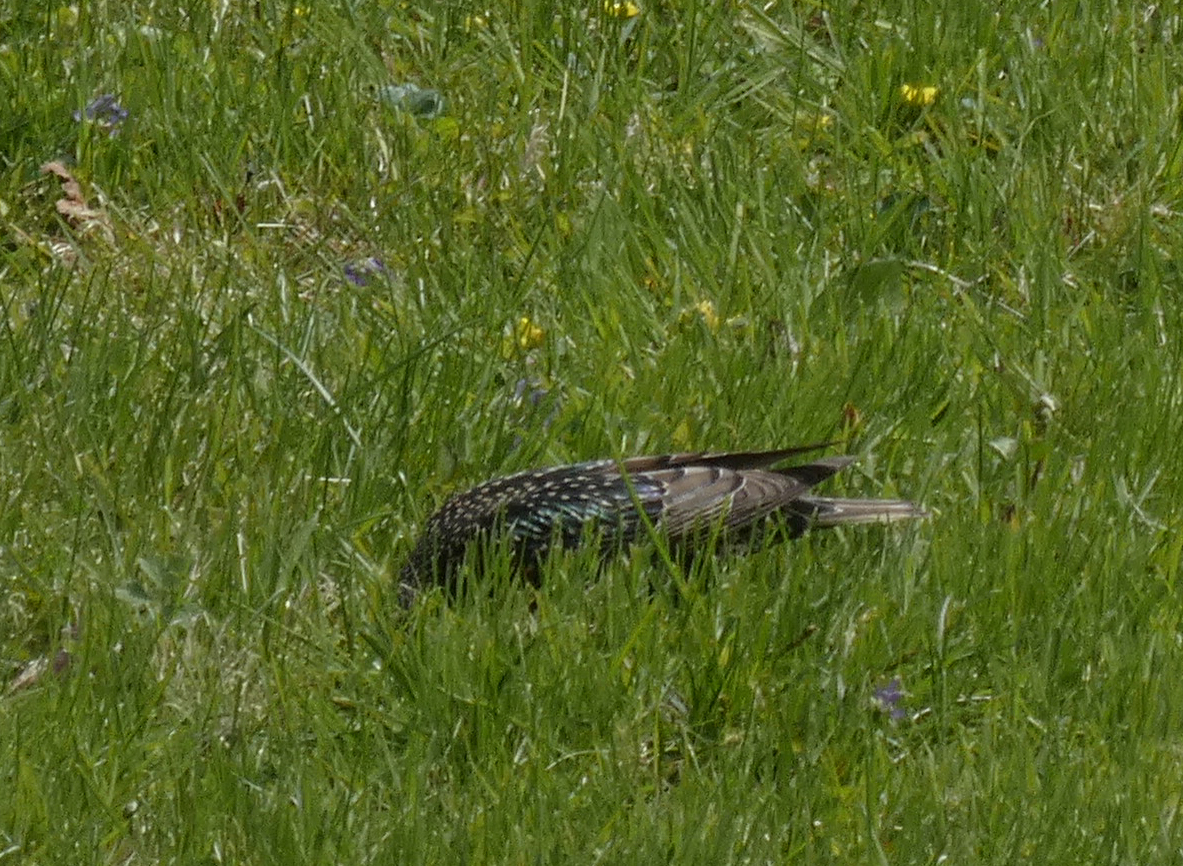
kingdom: Animalia
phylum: Chordata
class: Aves
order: Passeriformes
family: Sturnidae
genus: Sturnus
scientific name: Sturnus vulgaris
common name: Common starling
